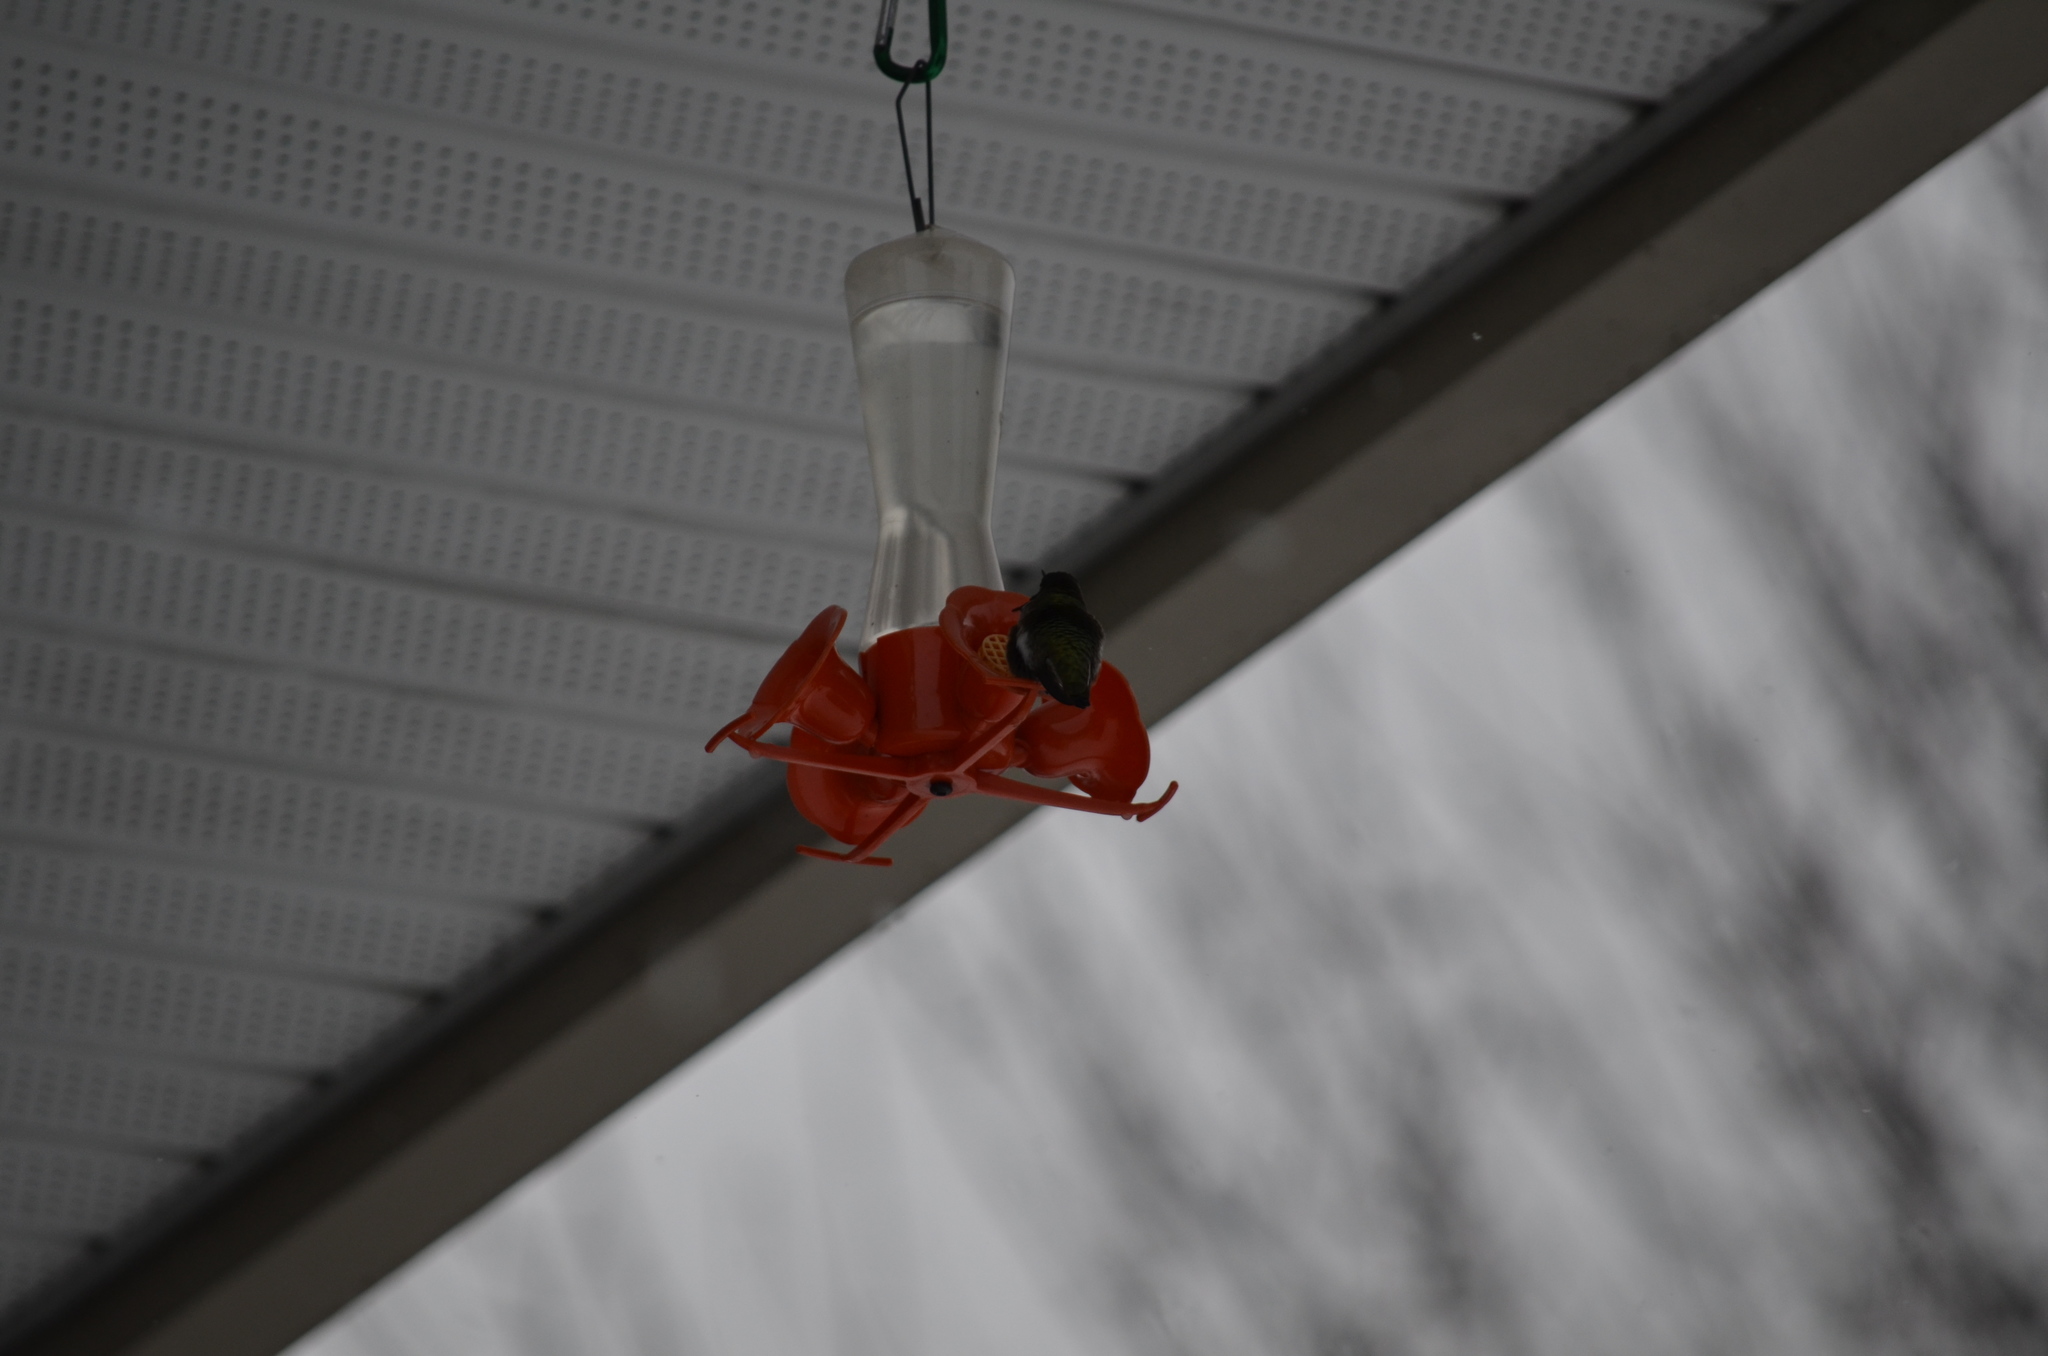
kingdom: Animalia
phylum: Chordata
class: Aves
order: Apodiformes
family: Trochilidae
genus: Calypte
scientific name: Calypte anna
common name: Anna's hummingbird
